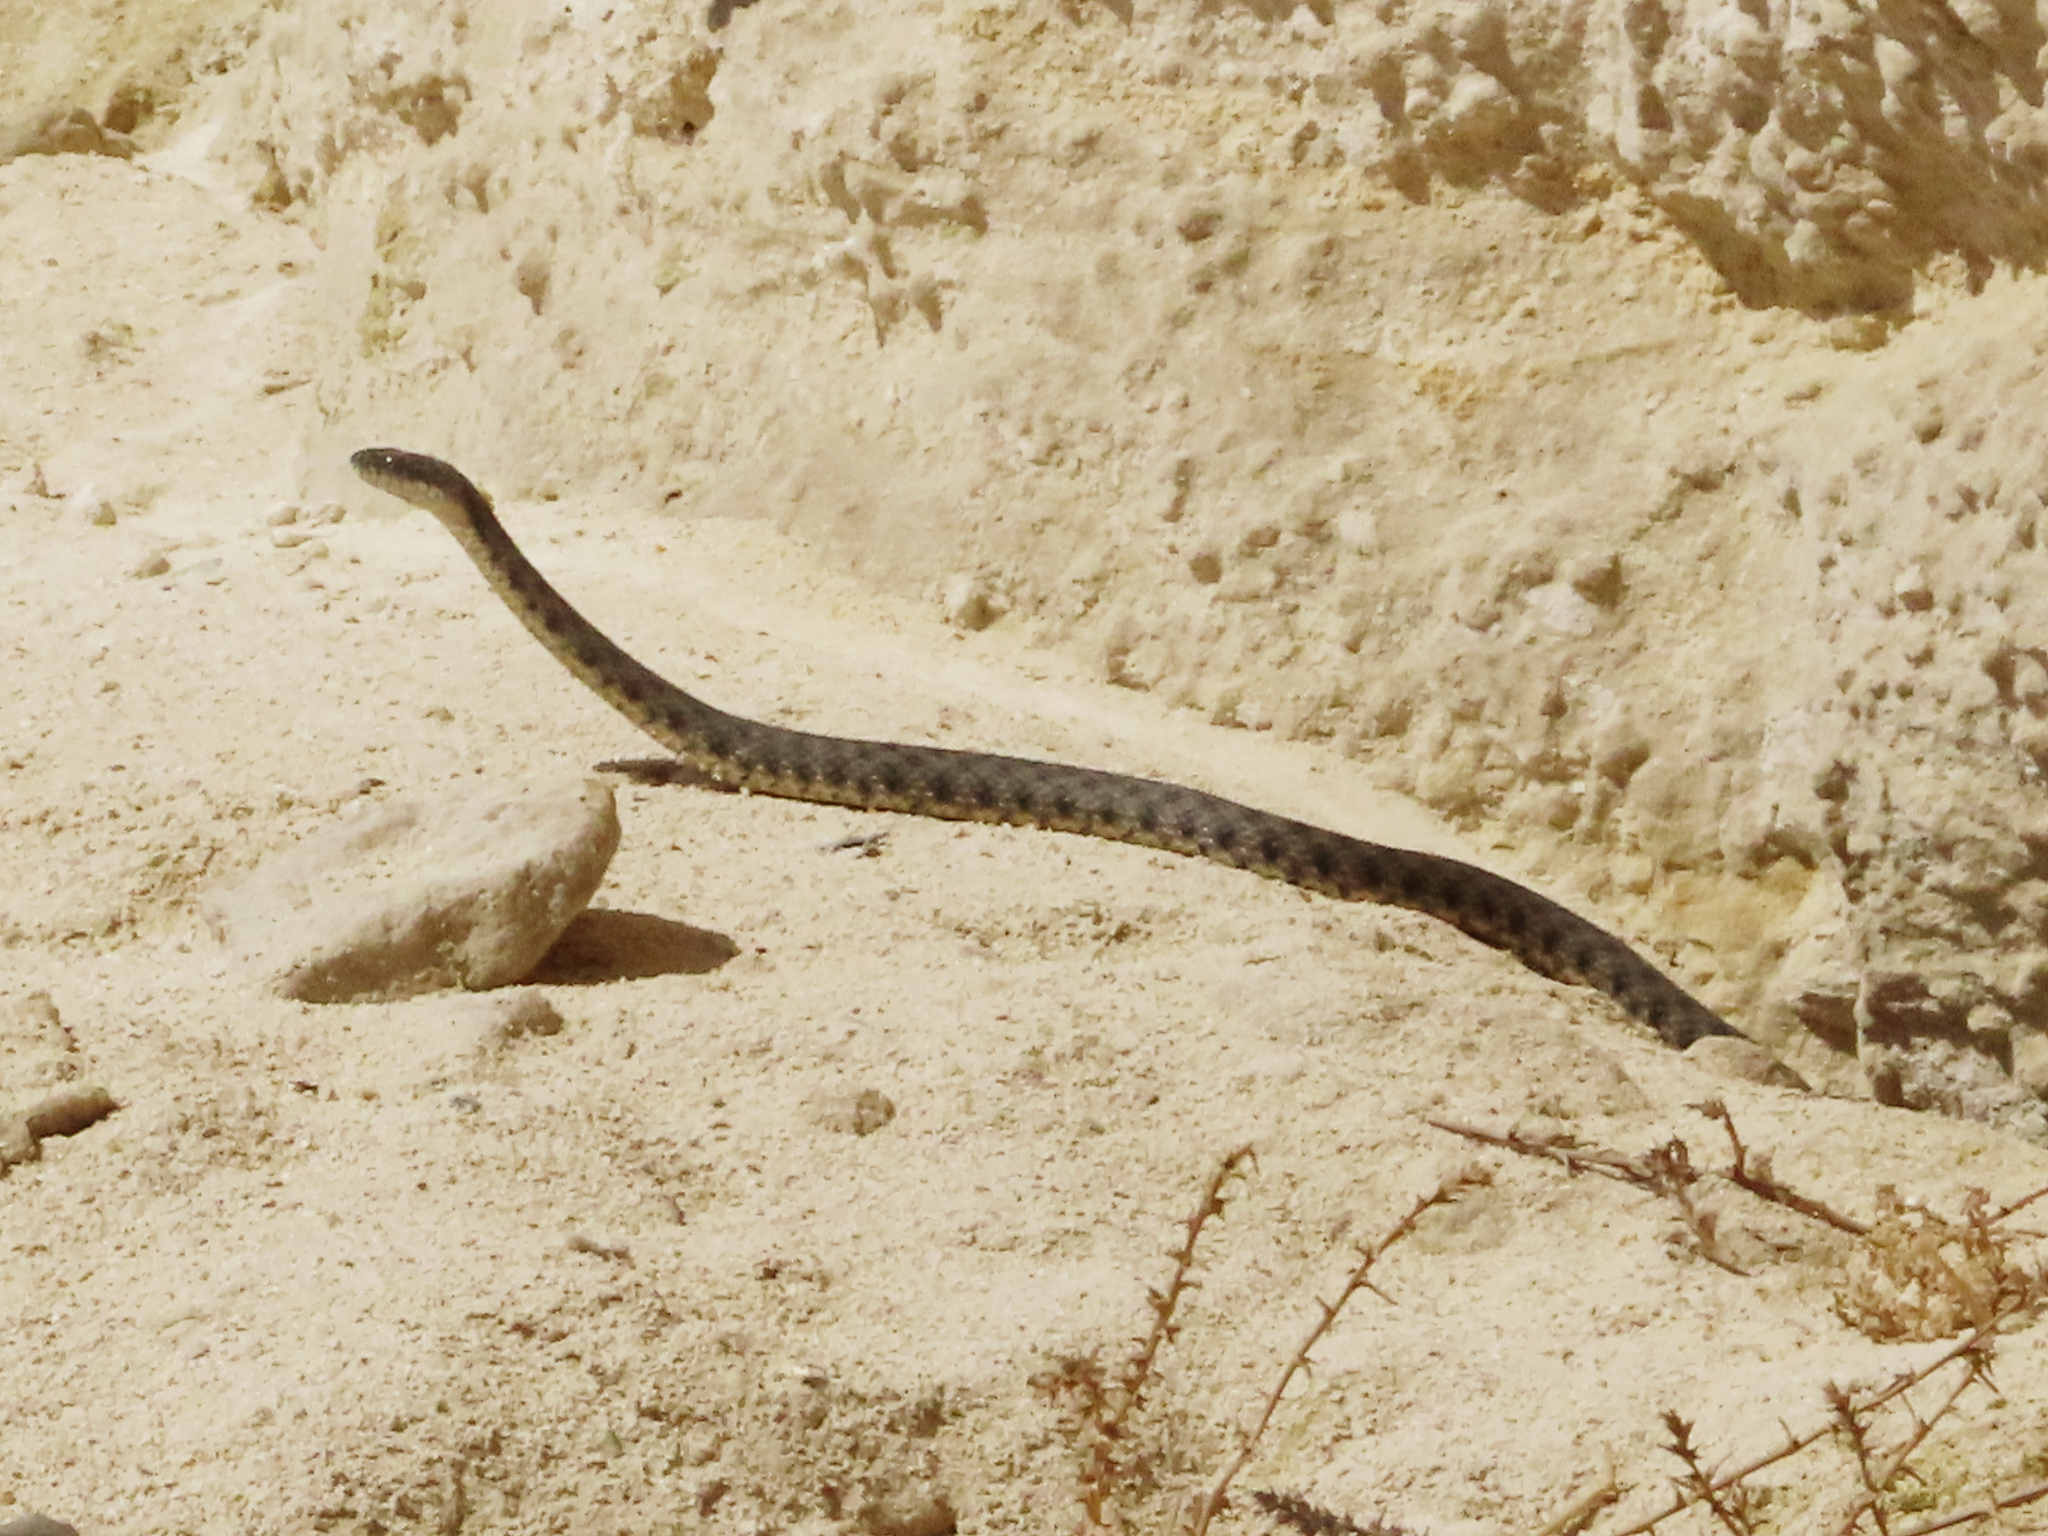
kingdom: Animalia
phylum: Chordata
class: Squamata
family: Colubridae
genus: Natrix
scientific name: Natrix tessellata
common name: Dice snake
